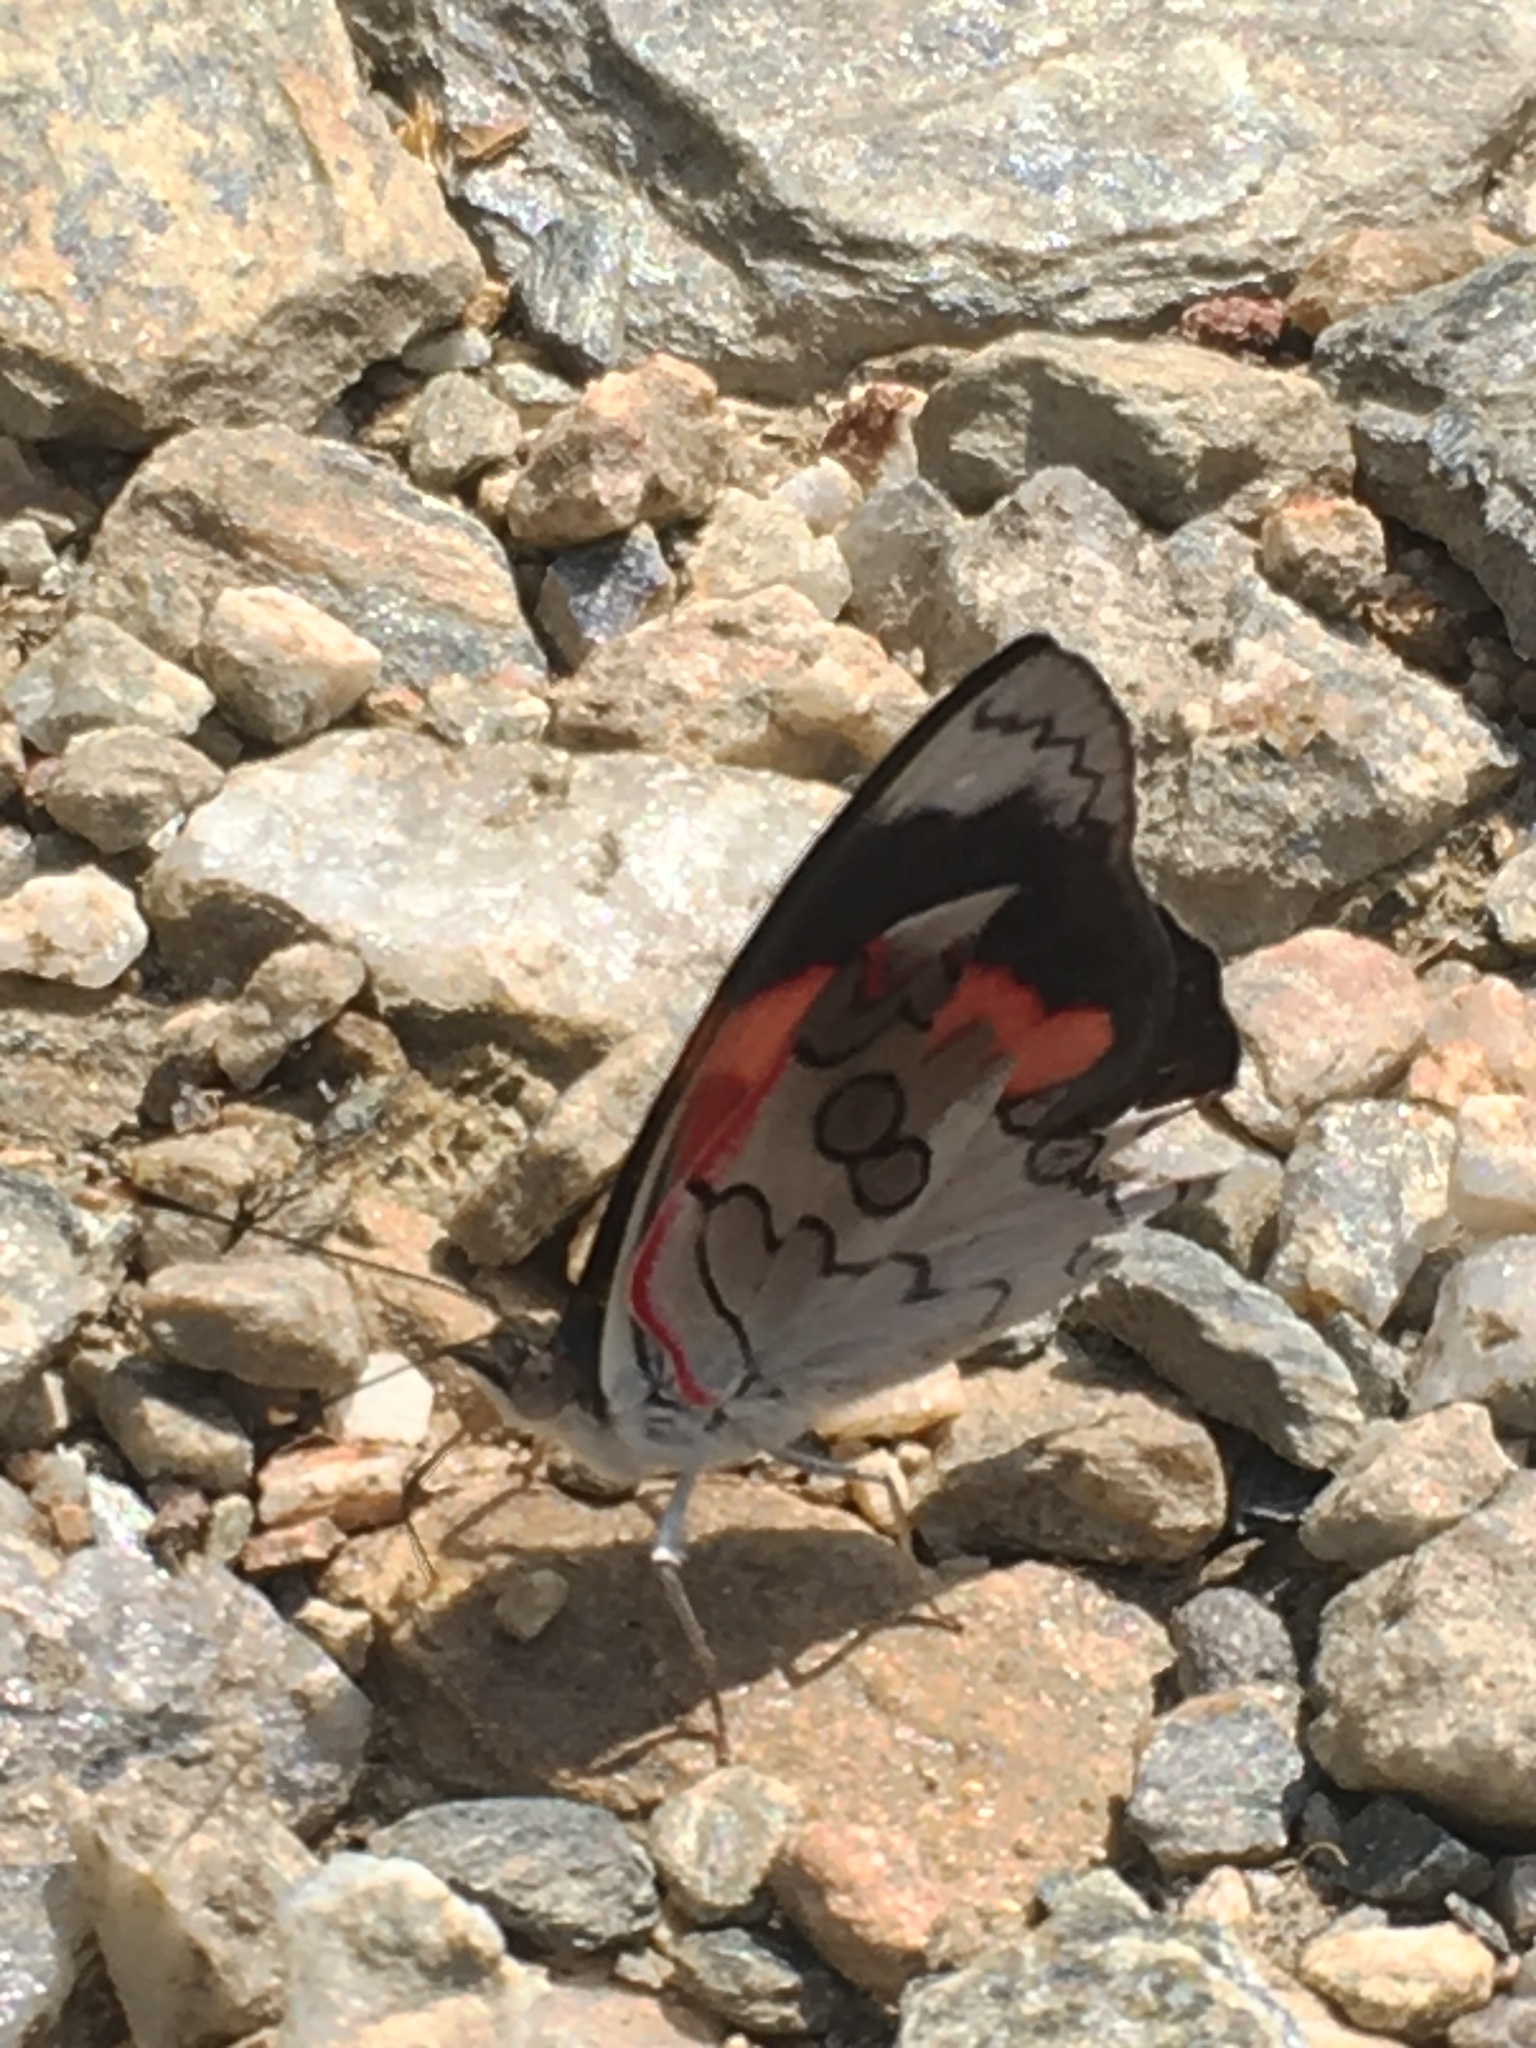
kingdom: Animalia
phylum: Arthropoda
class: Insecta
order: Lepidoptera
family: Nymphalidae
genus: Diaethria
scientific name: Diaethria pandama
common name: Orange-striped eighty-eight
